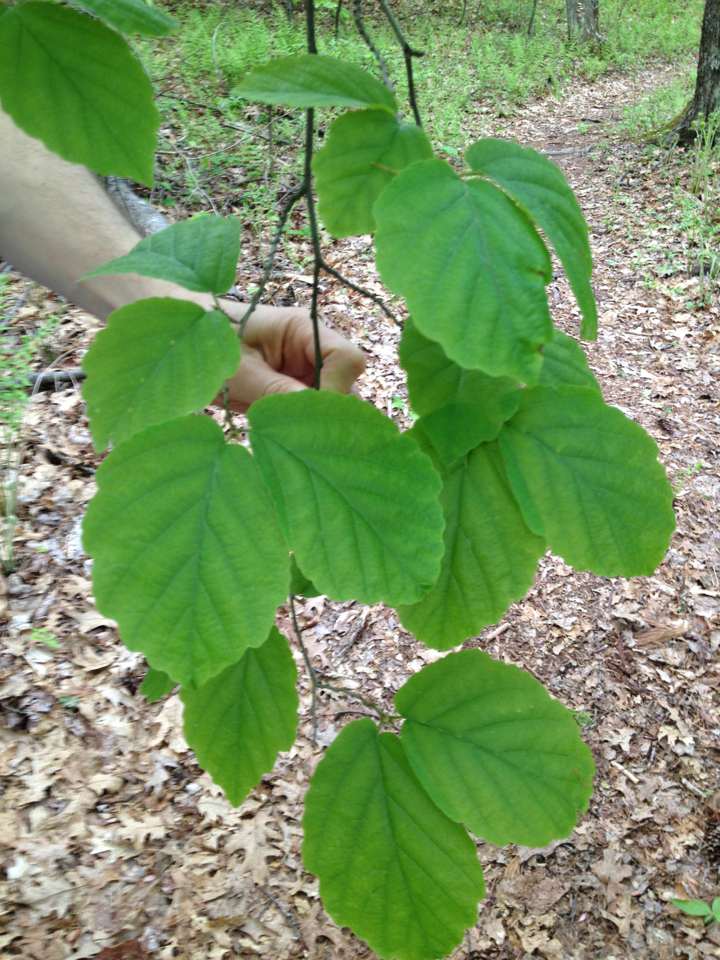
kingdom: Plantae
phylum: Tracheophyta
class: Magnoliopsida
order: Saxifragales
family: Hamamelidaceae
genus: Hamamelis
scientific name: Hamamelis virginiana
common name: Witch-hazel
